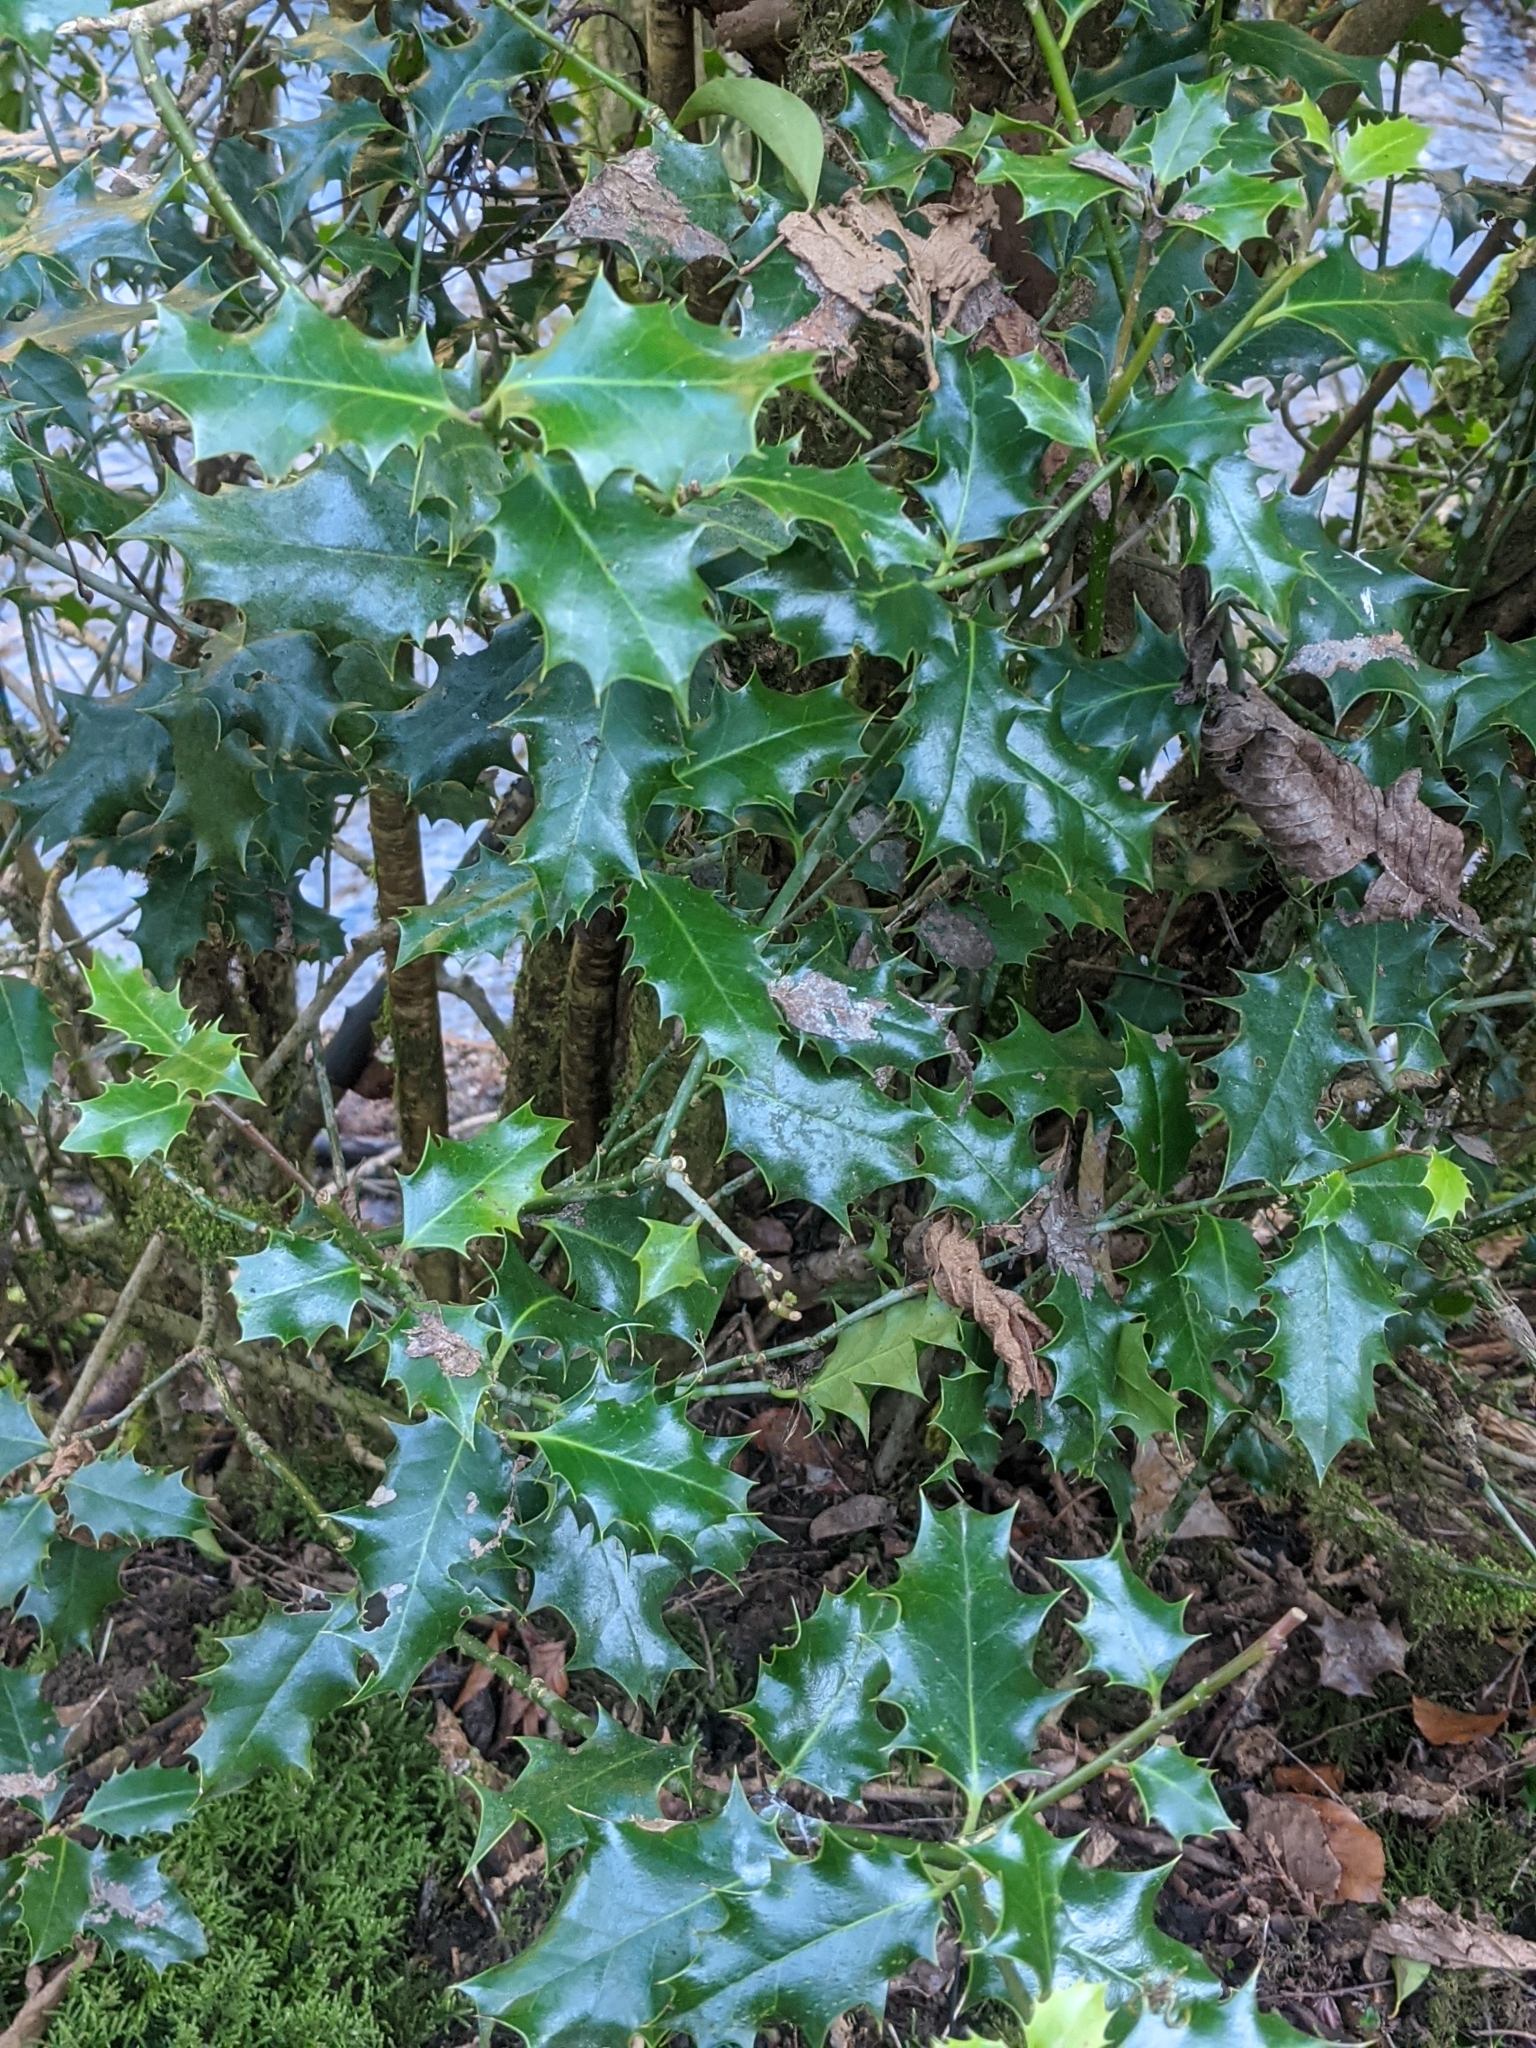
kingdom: Plantae
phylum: Tracheophyta
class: Magnoliopsida
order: Aquifoliales
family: Aquifoliaceae
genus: Ilex
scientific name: Ilex aquifolium
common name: English holly
